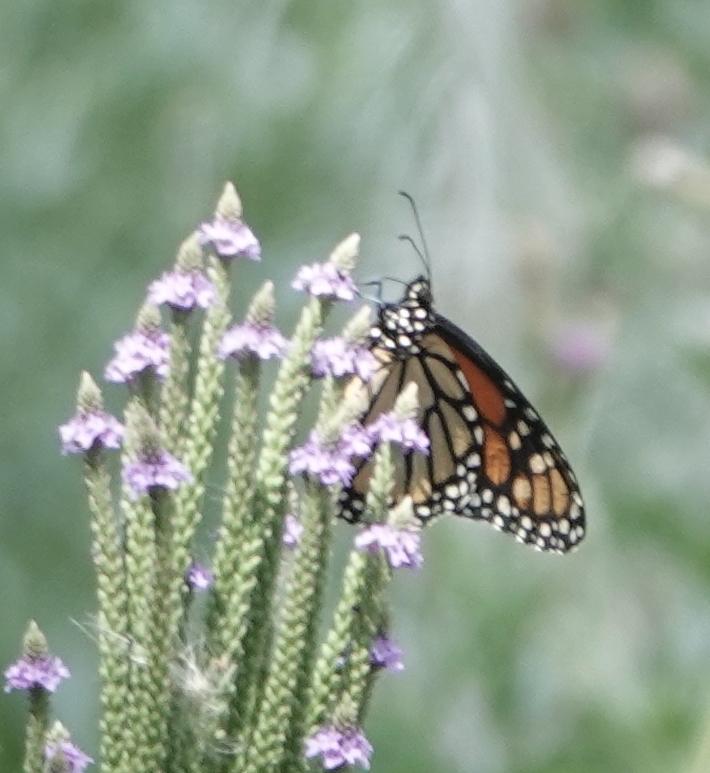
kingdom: Animalia
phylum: Arthropoda
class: Insecta
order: Lepidoptera
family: Nymphalidae
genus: Danaus
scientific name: Danaus plexippus
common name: Monarch
